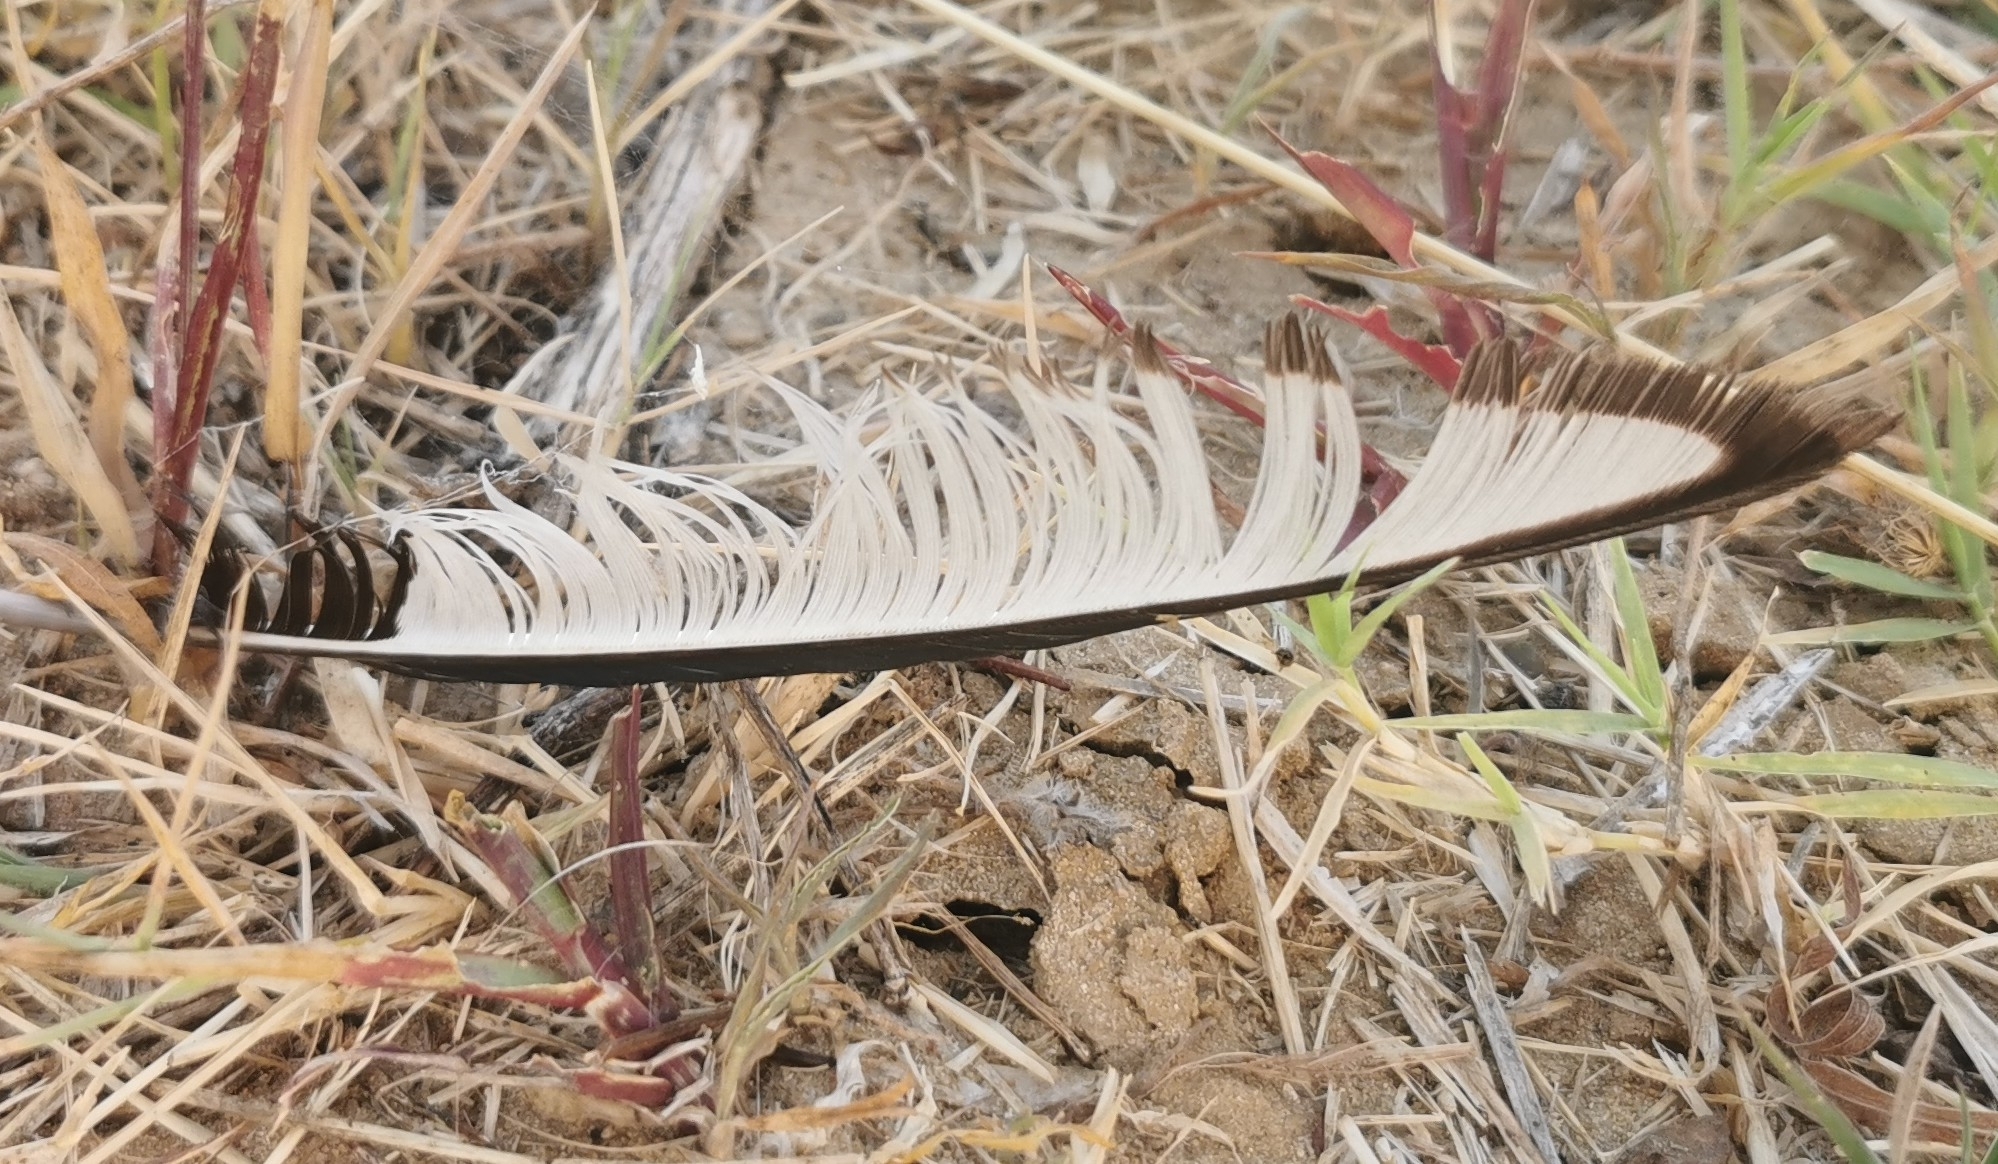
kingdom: Animalia
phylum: Chordata
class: Aves
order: Passeriformes
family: Corvidae
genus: Pica
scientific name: Pica pica
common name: Eurasian magpie
